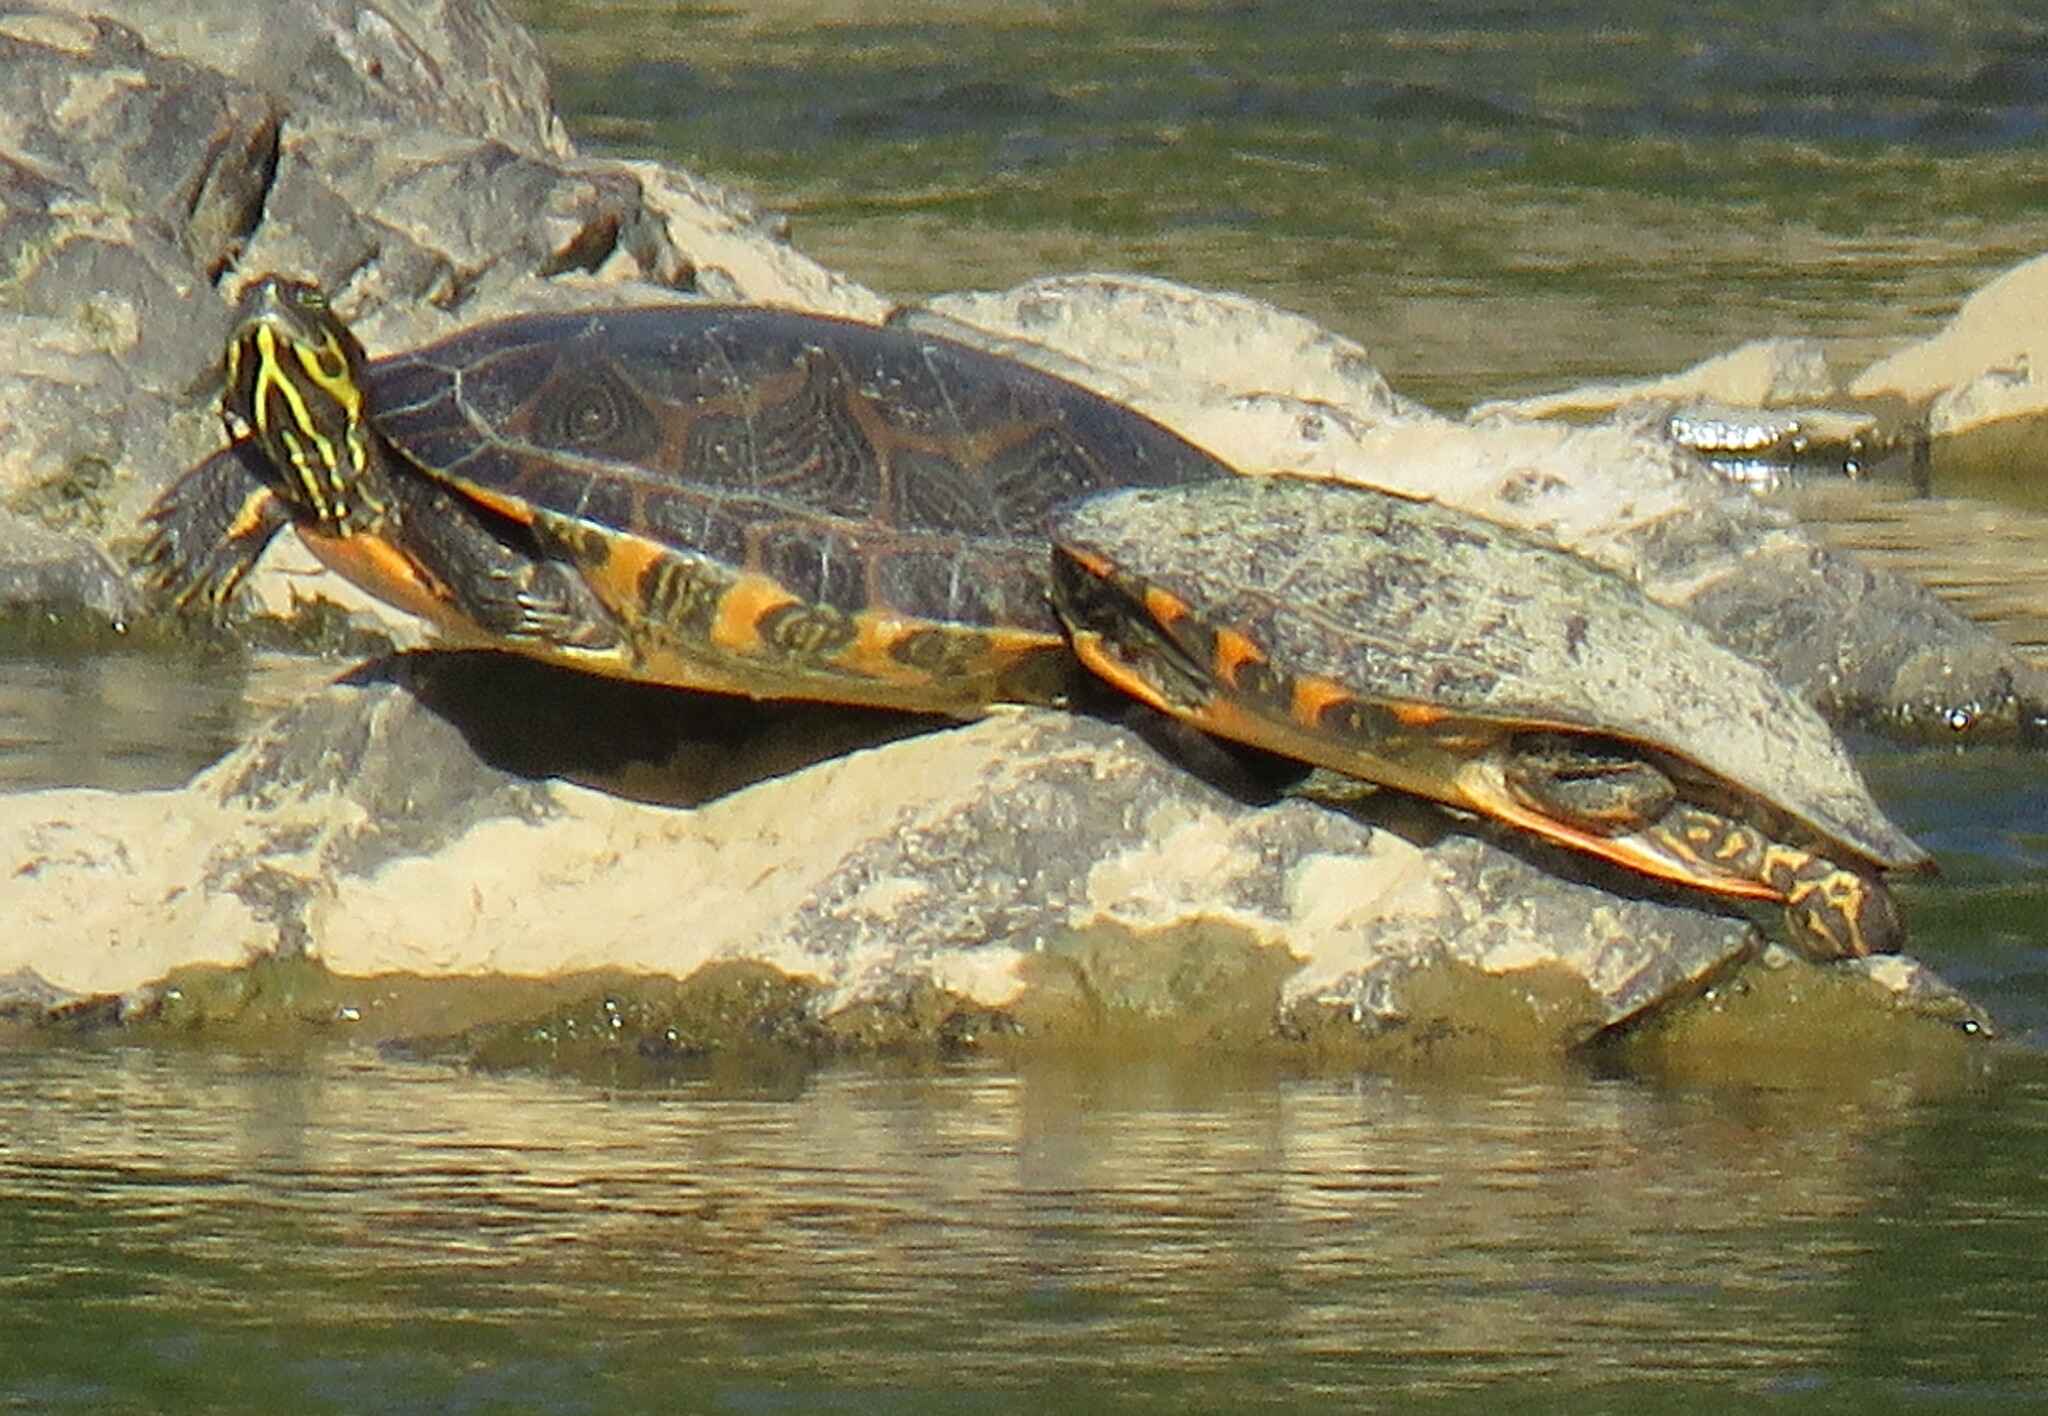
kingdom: Animalia
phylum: Chordata
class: Testudines
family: Emydidae
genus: Pseudemys
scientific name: Pseudemys concinna
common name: Eastern river cooter
